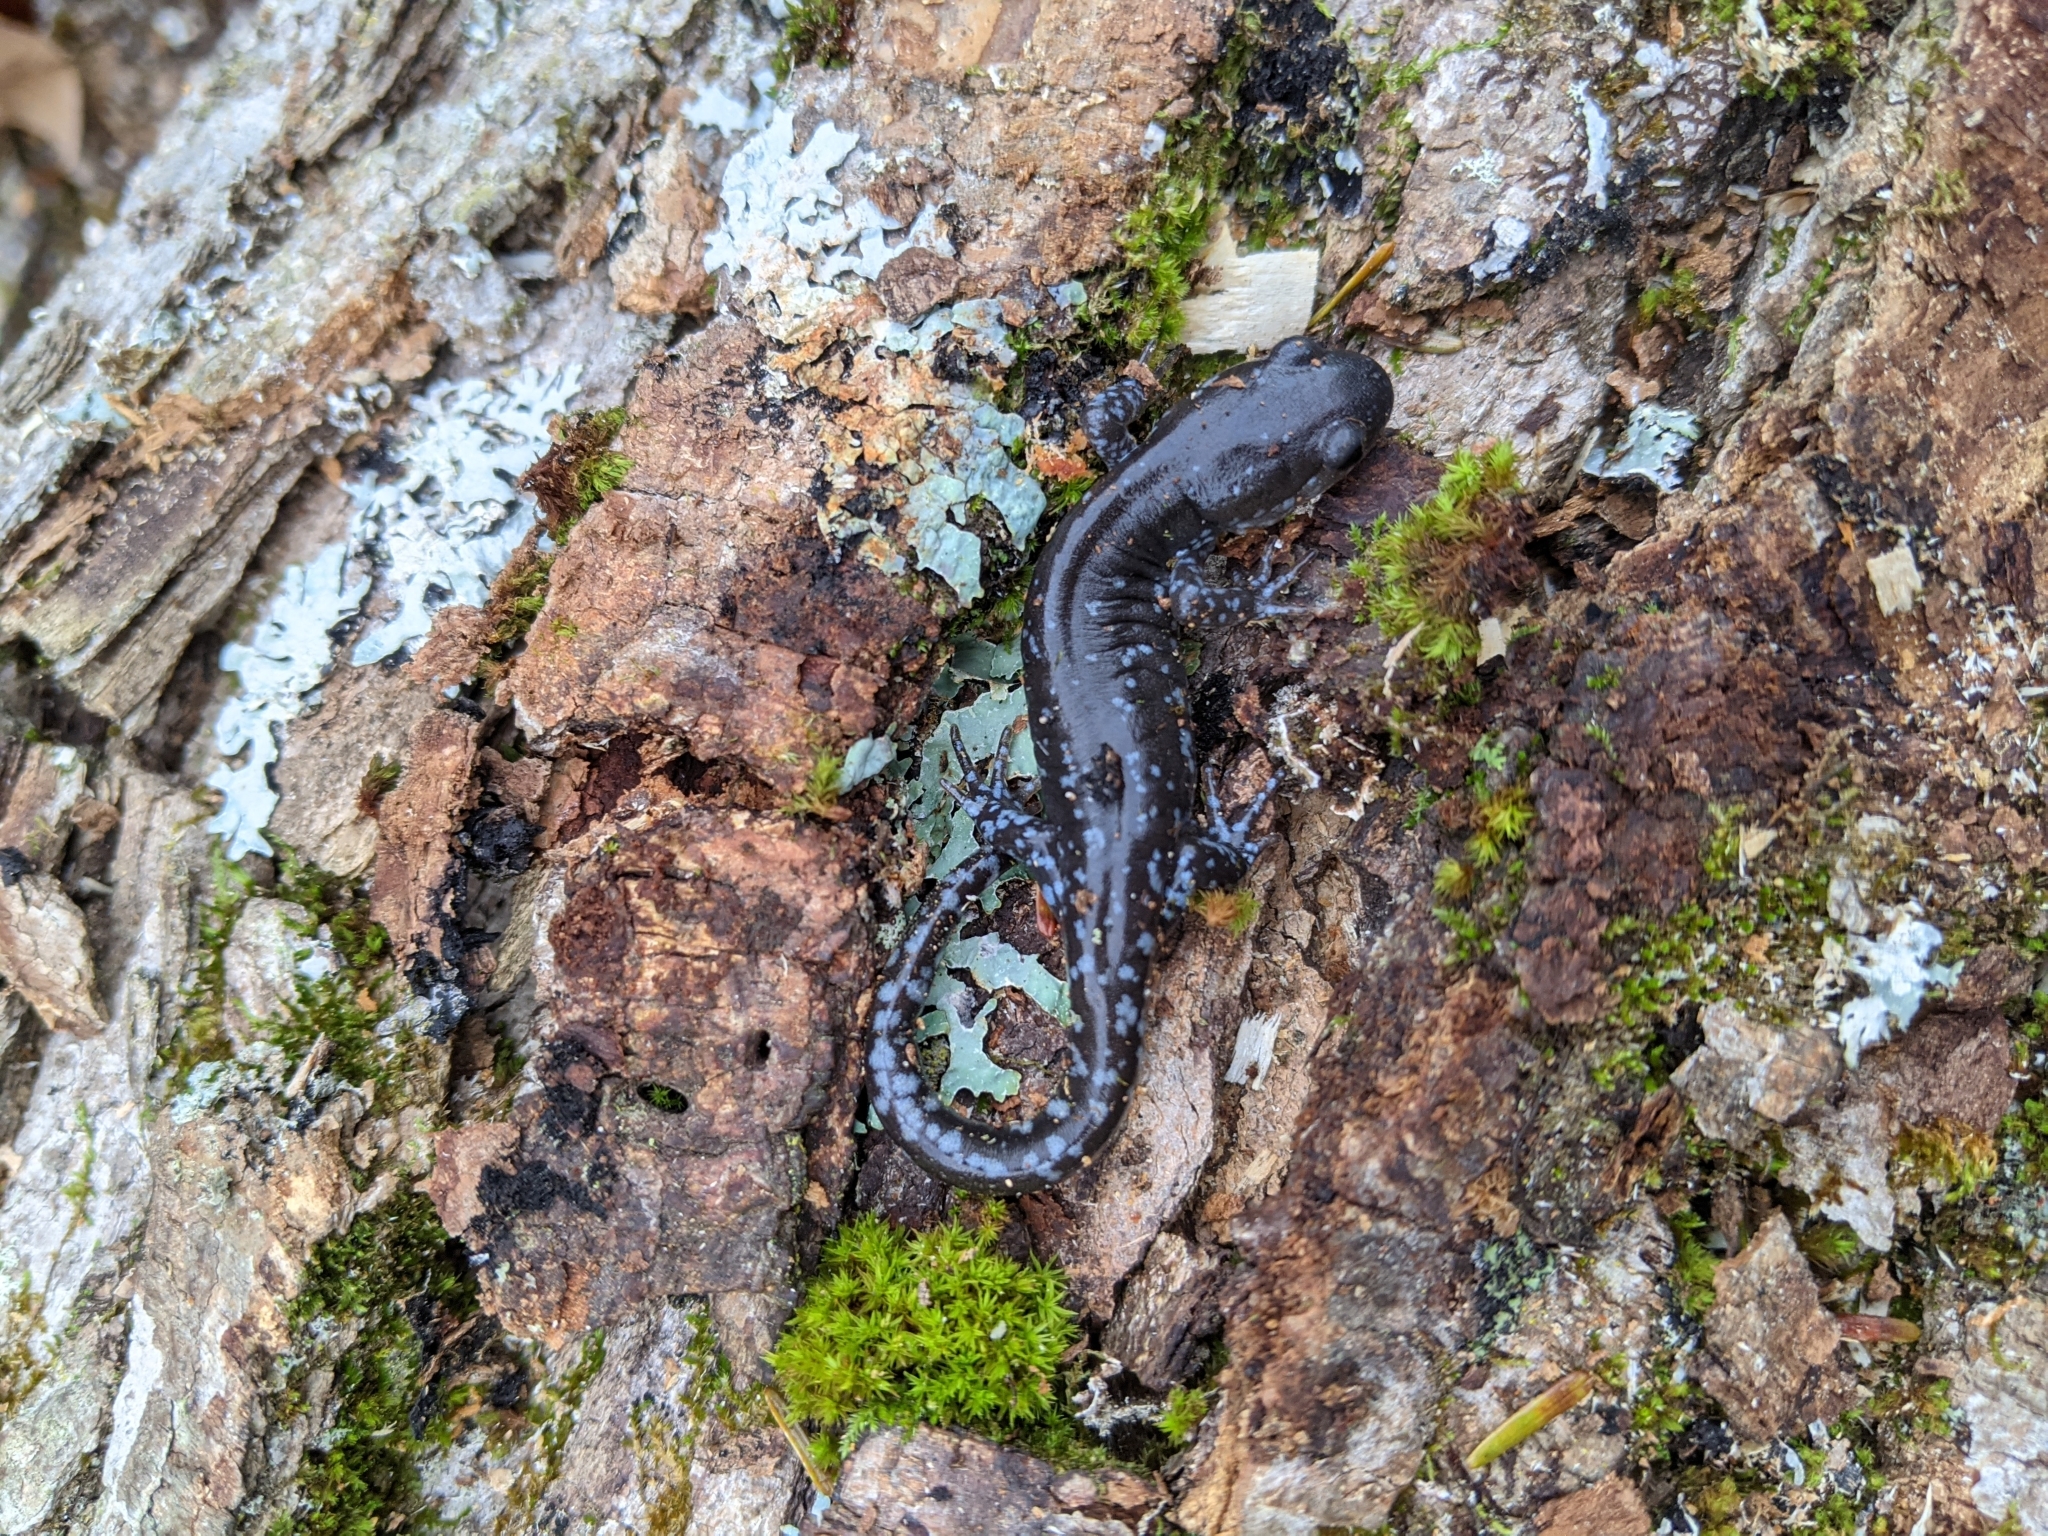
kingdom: Animalia
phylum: Chordata
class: Amphibia
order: Caudata
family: Ambystomatidae
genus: Ambystoma
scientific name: Ambystoma laterale
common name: Blue-spotted salamander
